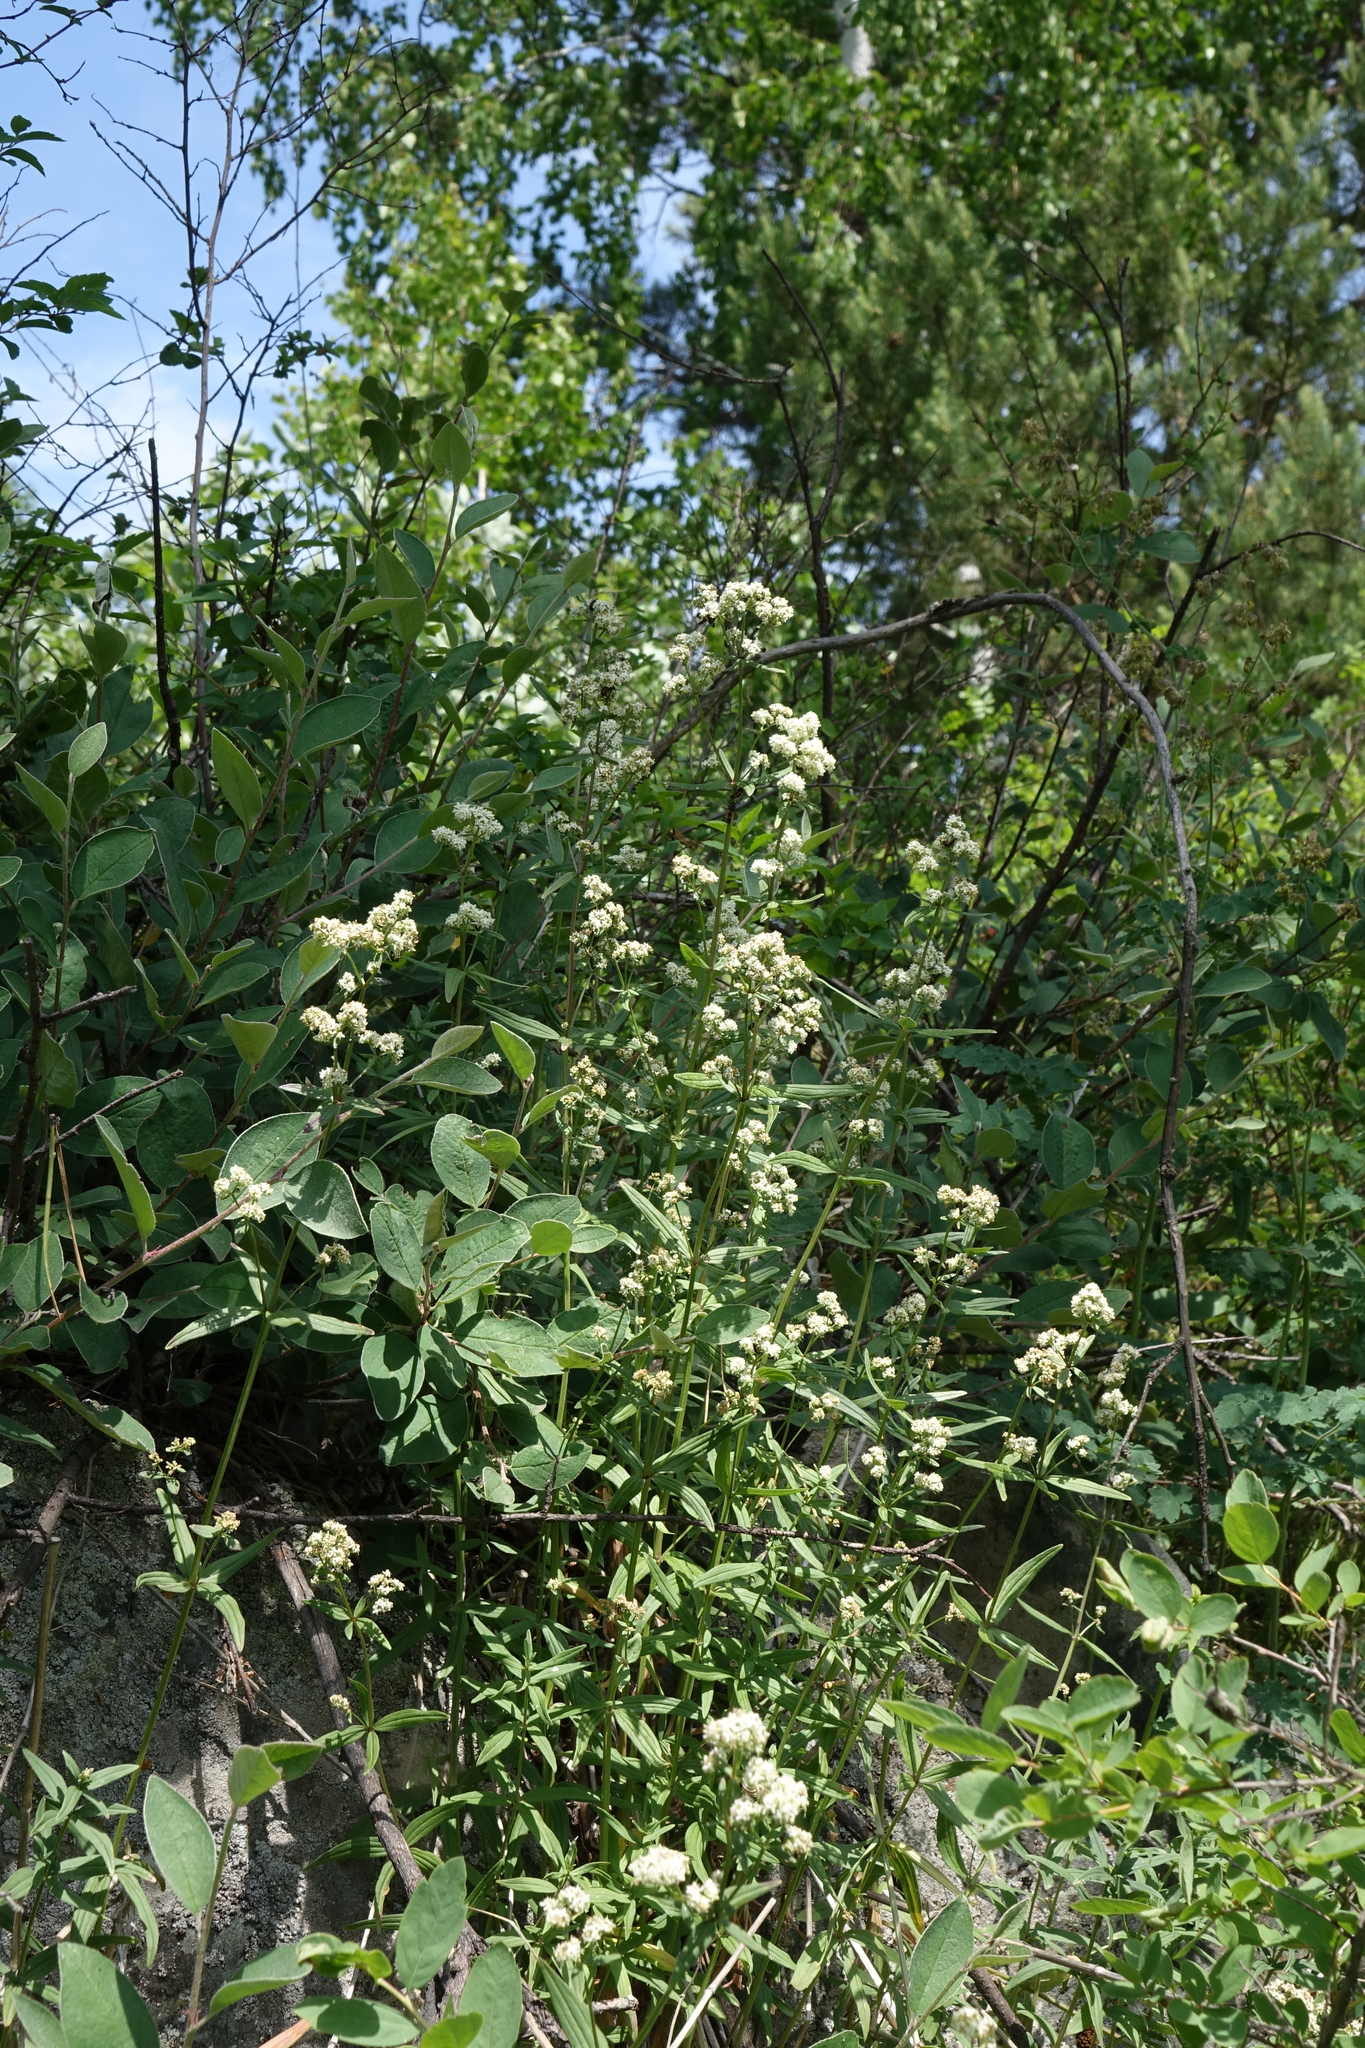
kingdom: Plantae
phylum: Tracheophyta
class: Magnoliopsida
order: Gentianales
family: Rubiaceae
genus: Galium
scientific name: Galium boreale
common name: Northern bedstraw
